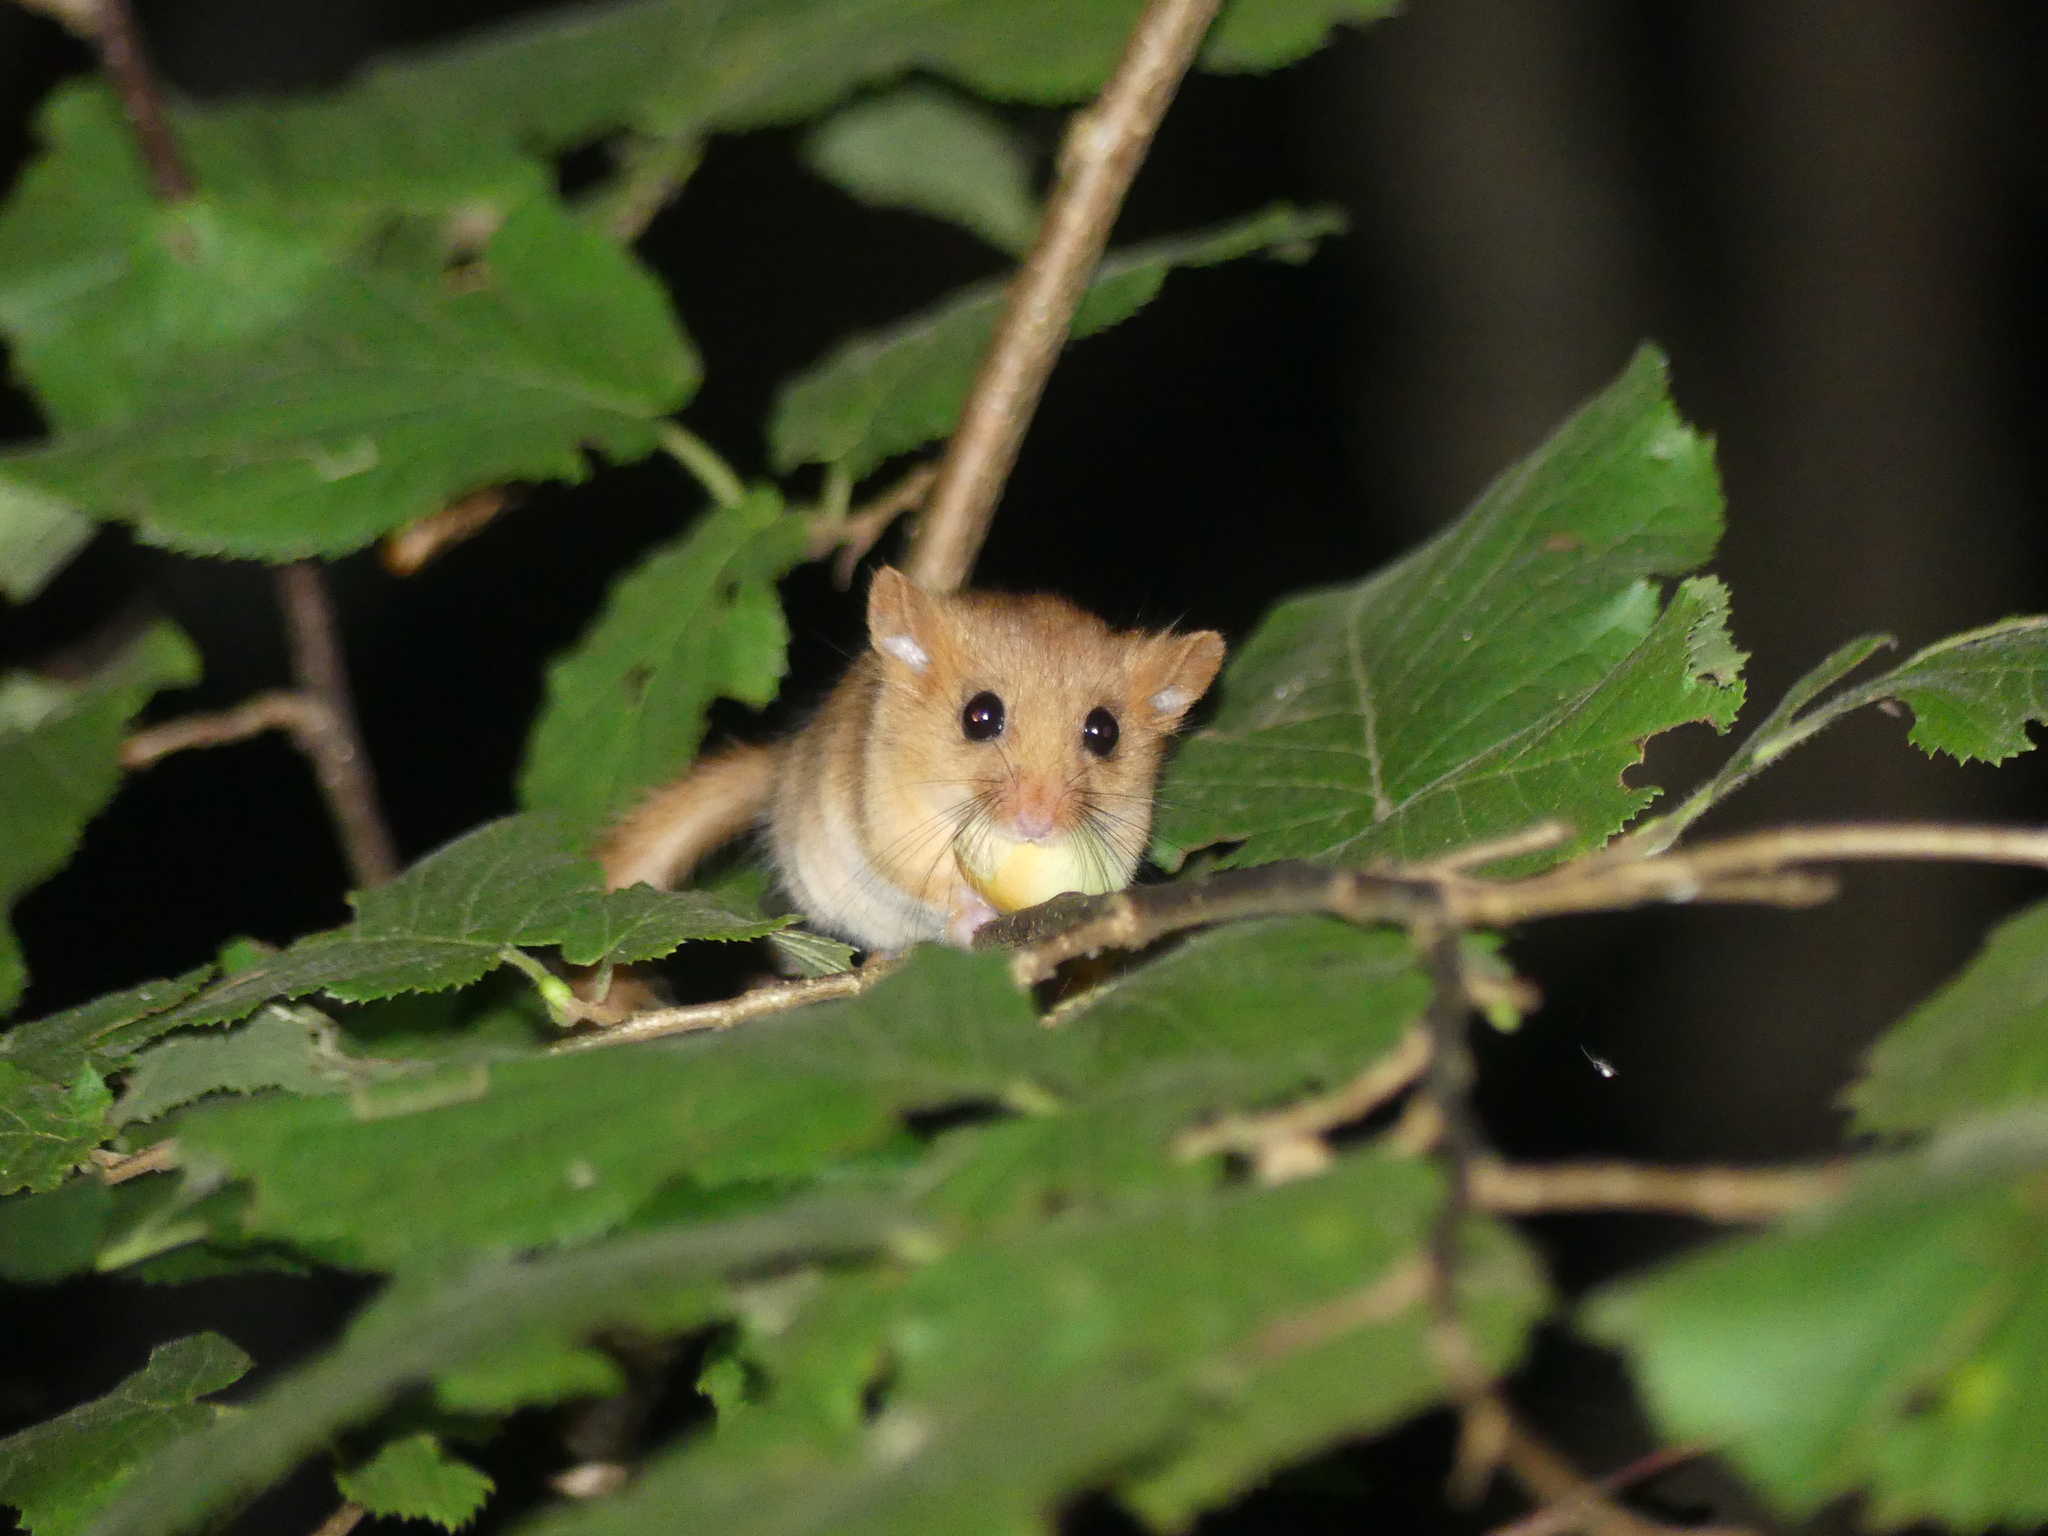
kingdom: Animalia
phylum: Chordata
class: Mammalia
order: Rodentia
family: Gliridae
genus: Muscardinus
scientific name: Muscardinus avellanarius
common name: Hazel dormouse
